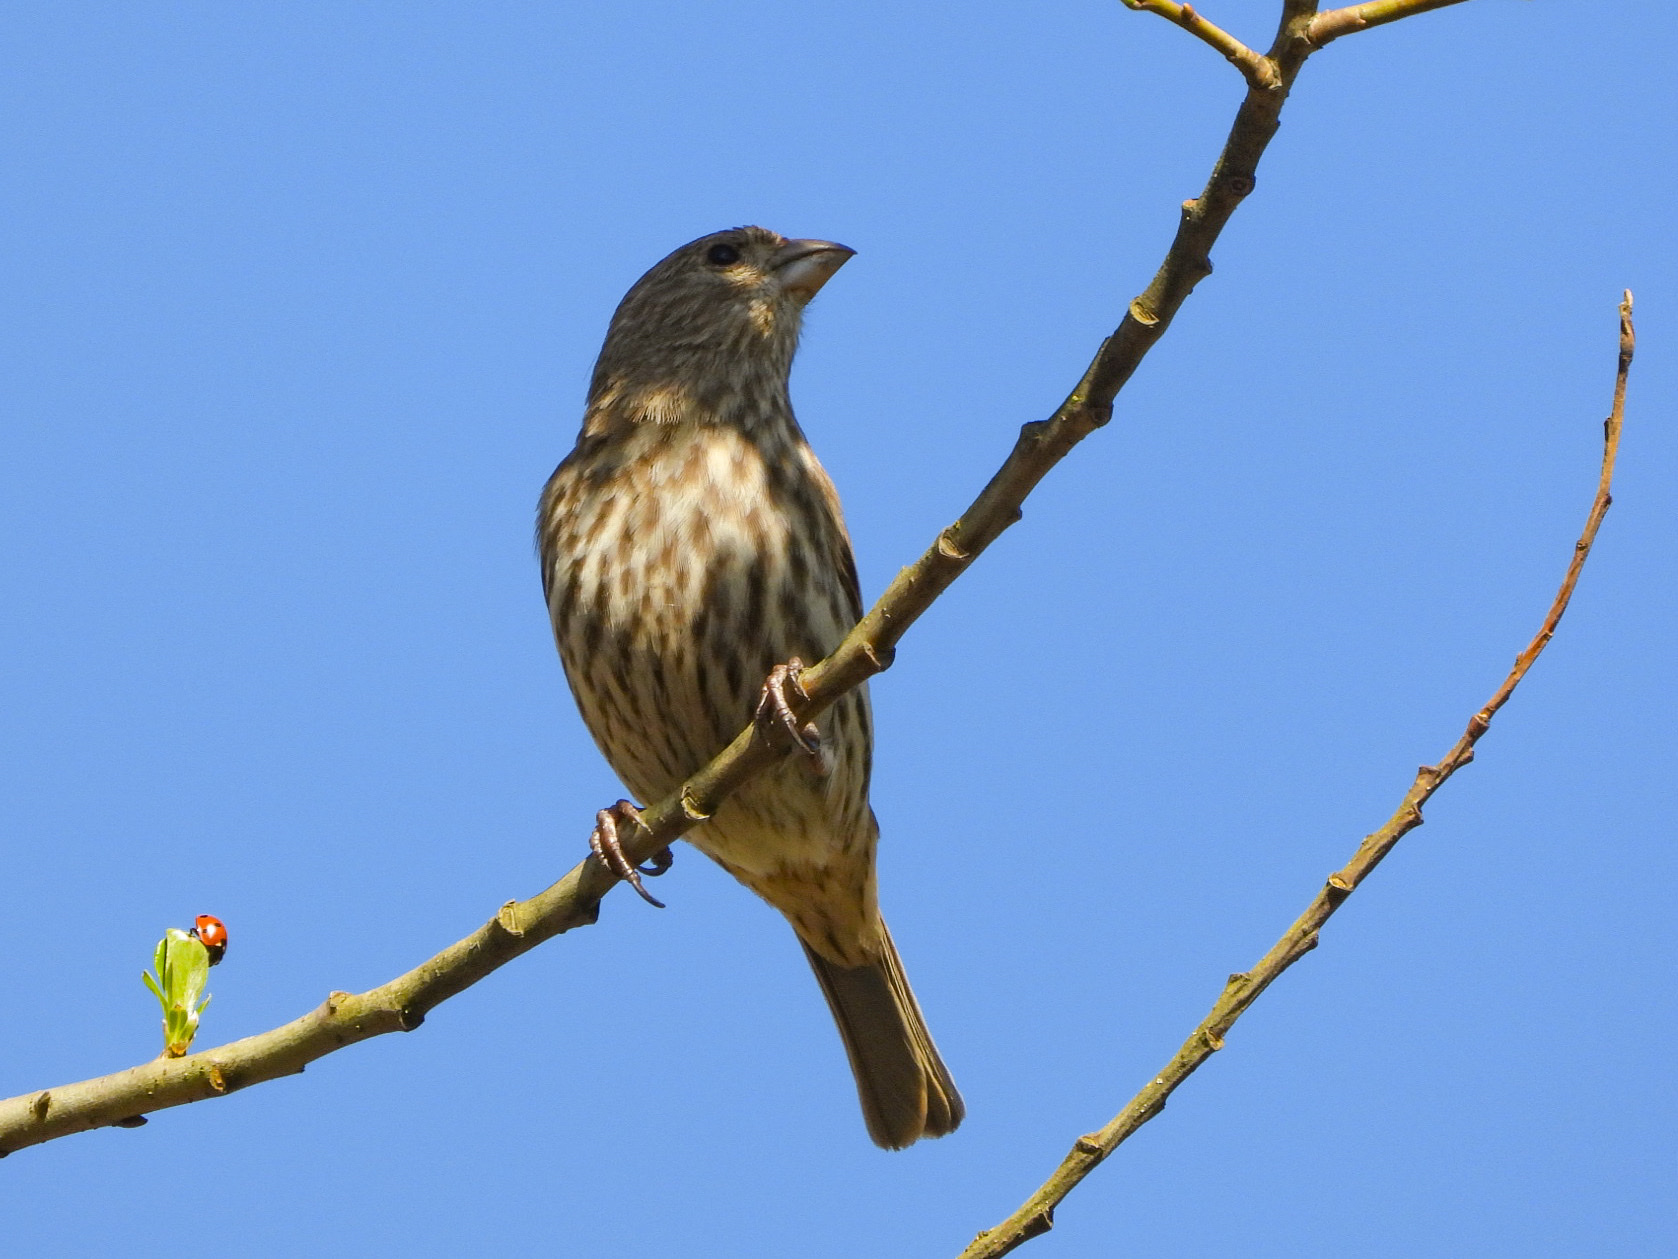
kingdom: Animalia
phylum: Chordata
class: Aves
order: Passeriformes
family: Fringillidae
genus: Haemorhous
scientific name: Haemorhous mexicanus
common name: House finch
